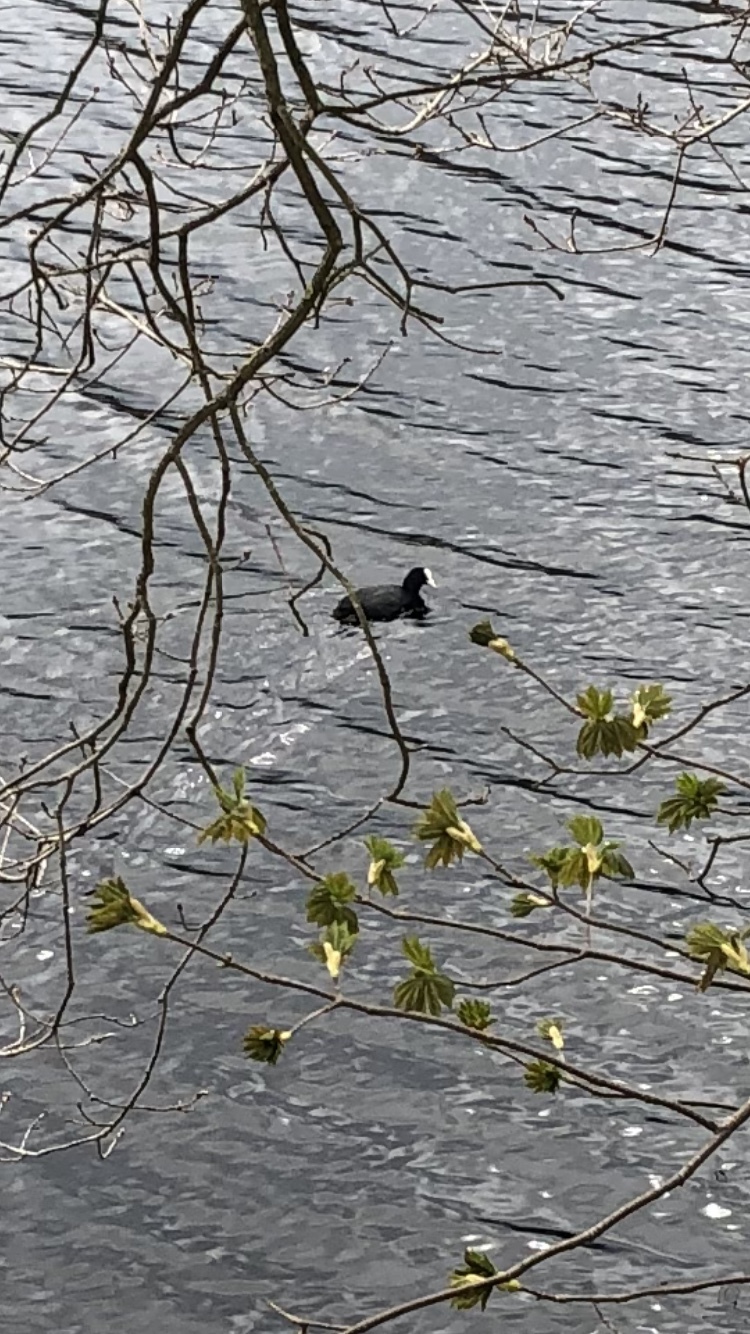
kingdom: Animalia
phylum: Chordata
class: Aves
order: Gruiformes
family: Rallidae
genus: Fulica
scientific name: Fulica atra
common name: Eurasian coot
